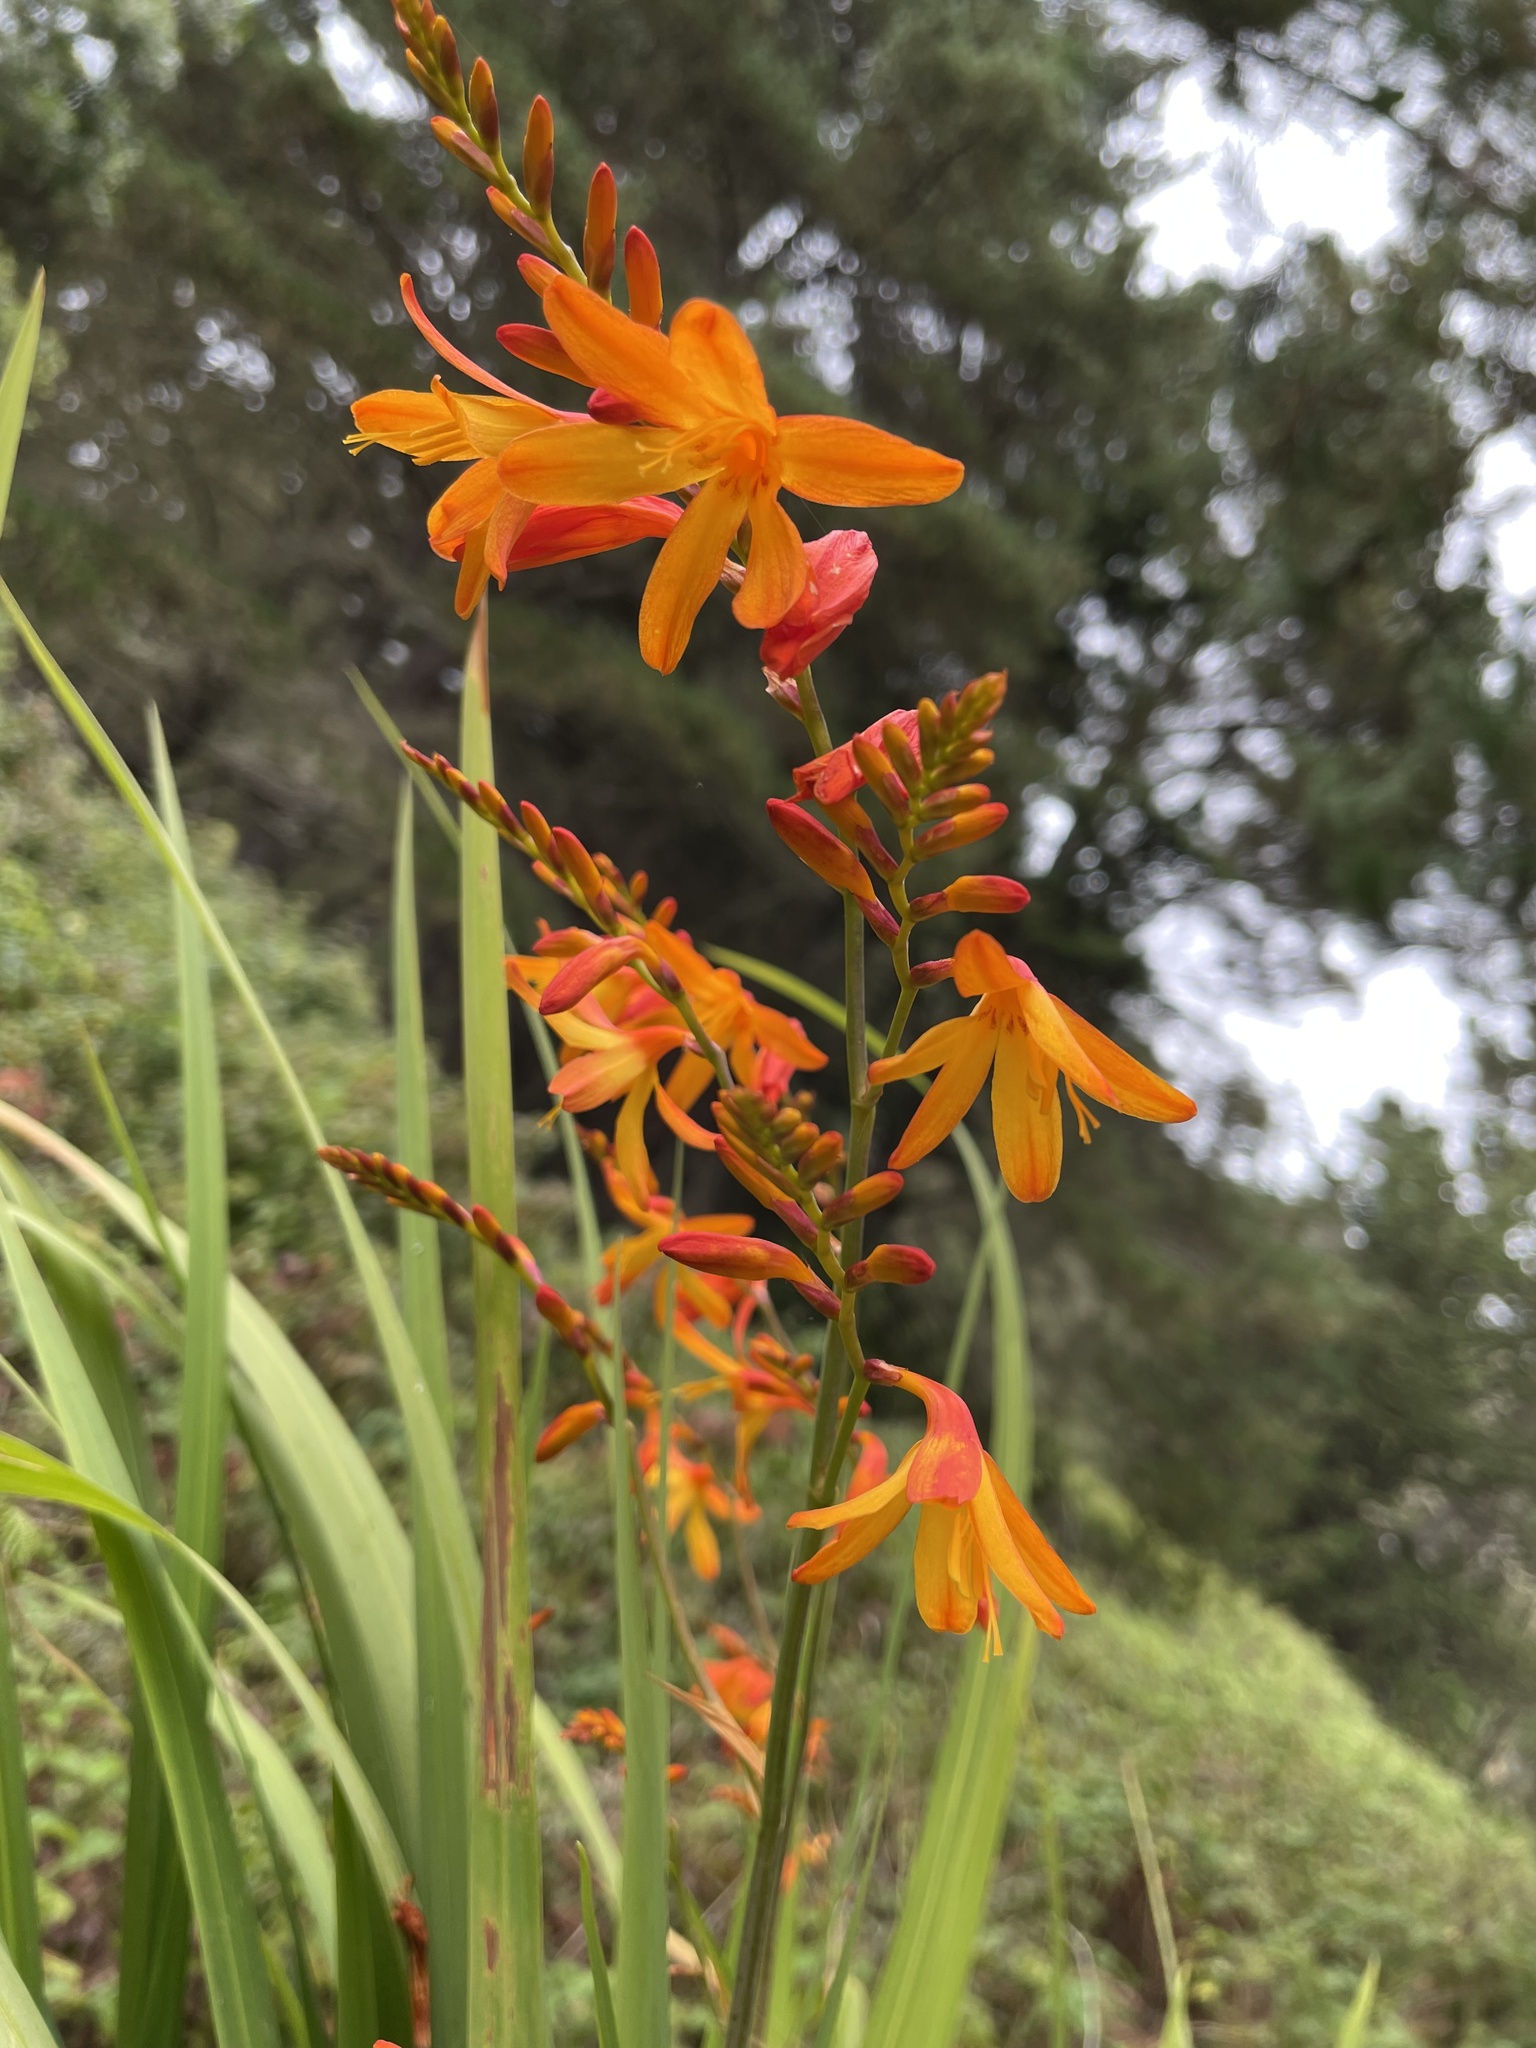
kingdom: Plantae
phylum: Tracheophyta
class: Liliopsida
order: Asparagales
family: Iridaceae
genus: Crocosmia
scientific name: Crocosmia crocosmiiflora
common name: Montbretia
